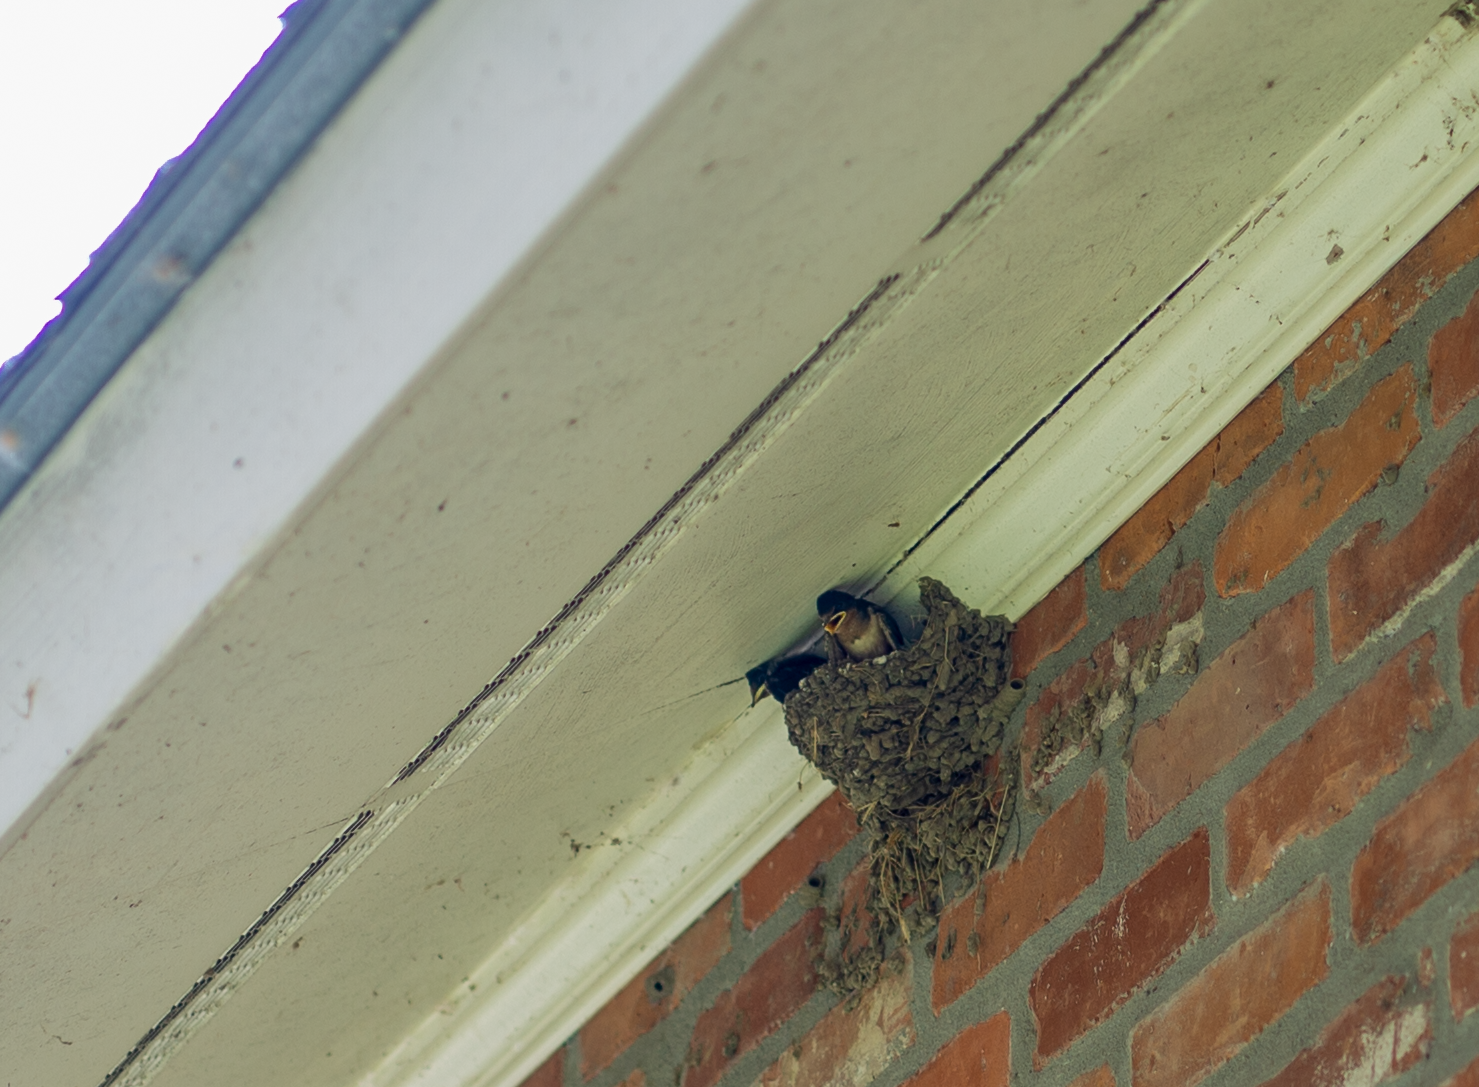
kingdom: Animalia
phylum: Chordata
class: Aves
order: Passeriformes
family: Hirundinidae
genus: Hirundo
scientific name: Hirundo rustica
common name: Barn swallow
